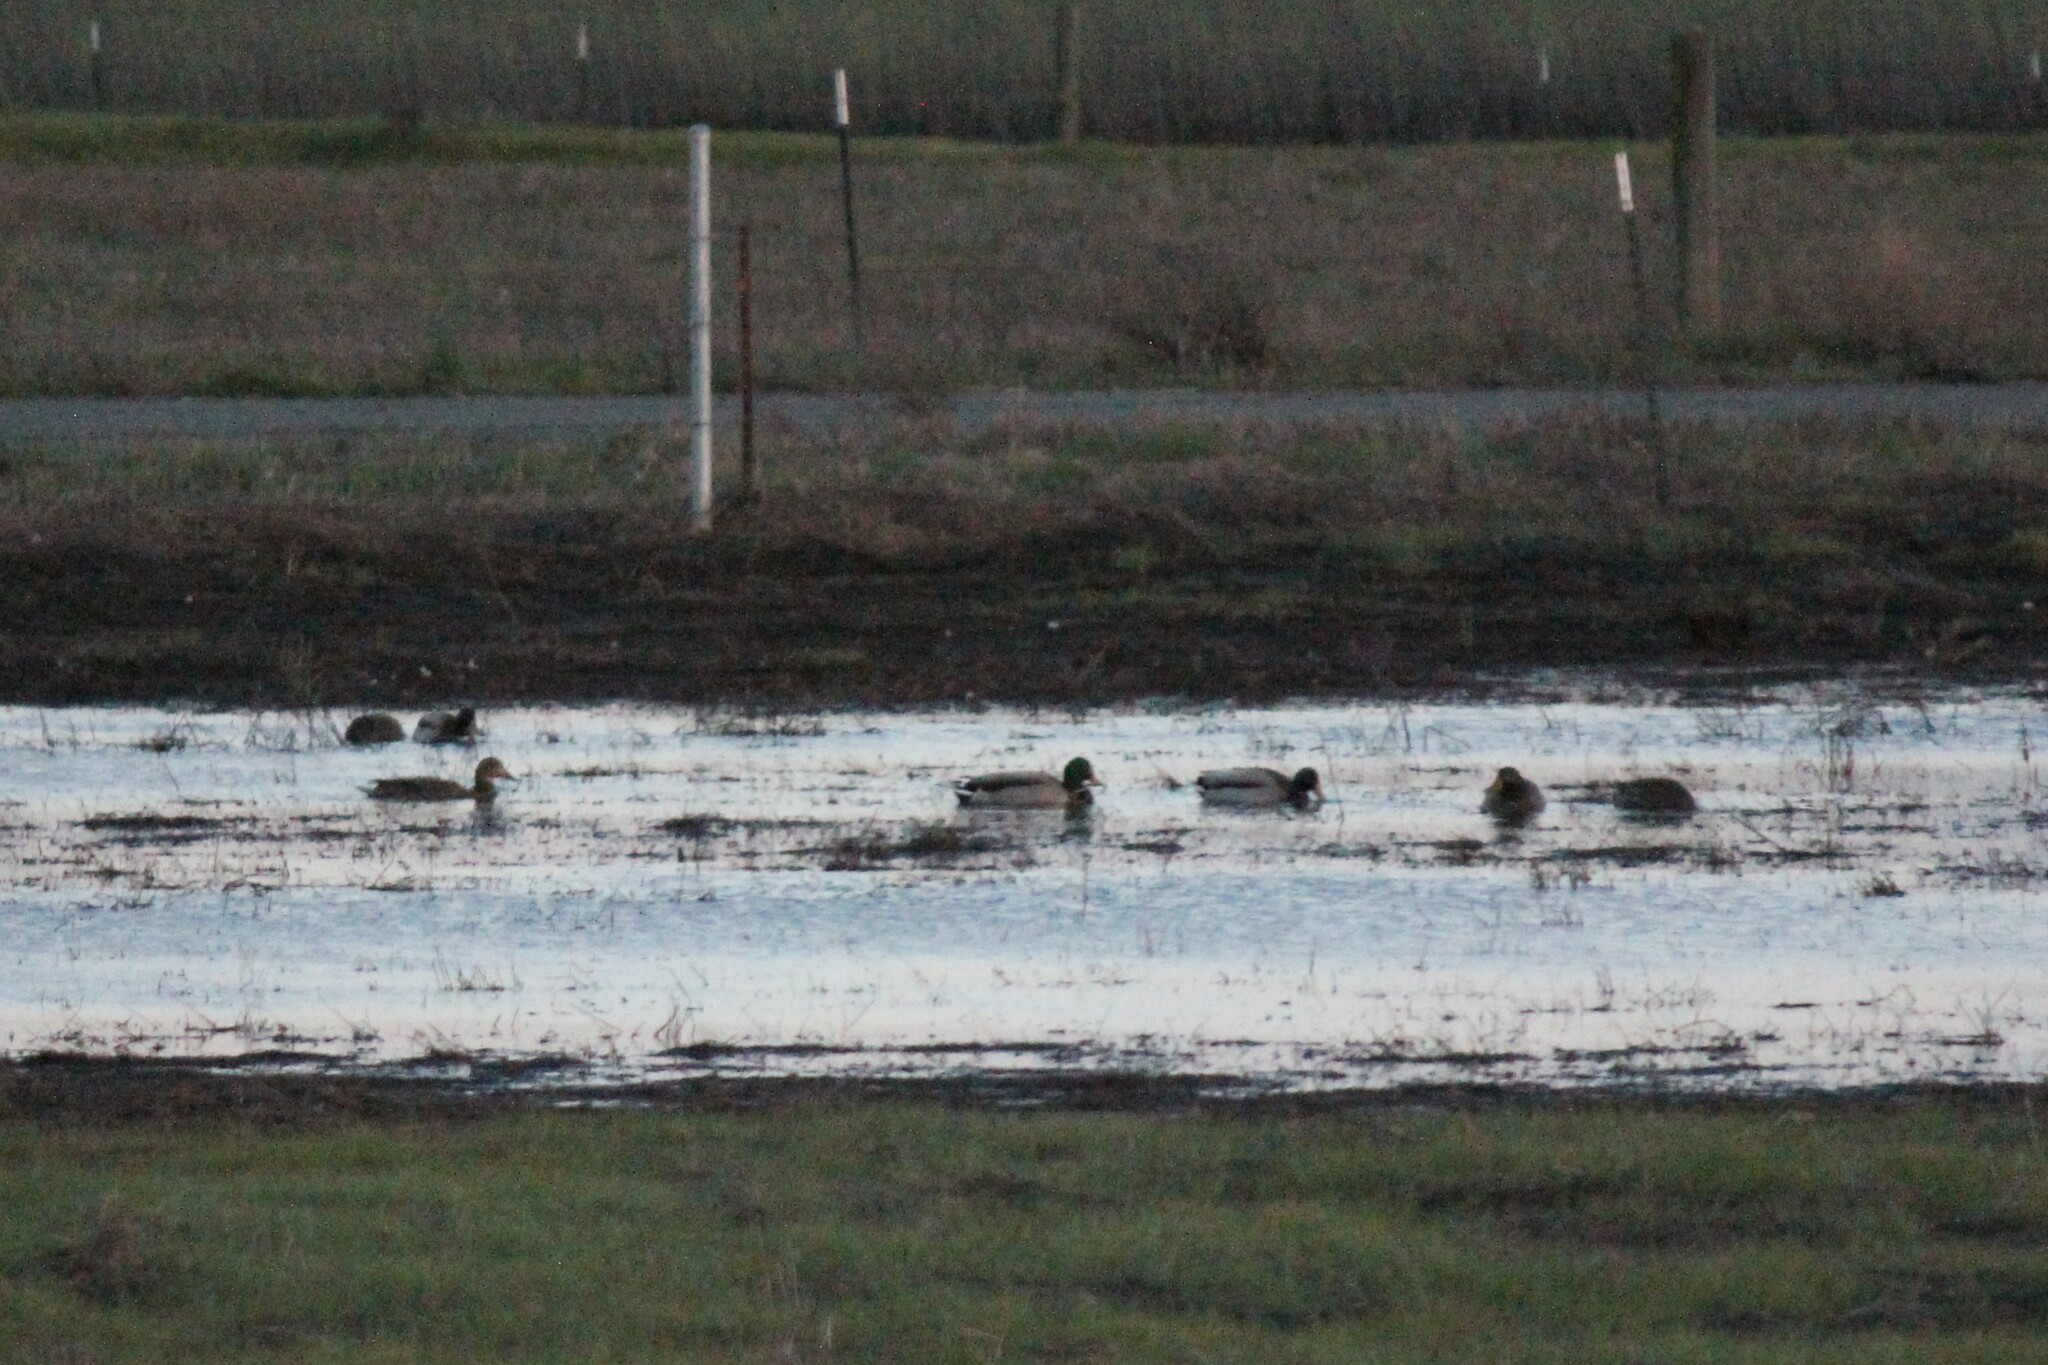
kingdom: Animalia
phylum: Chordata
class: Aves
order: Anseriformes
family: Anatidae
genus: Anas
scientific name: Anas platyrhynchos
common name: Mallard
